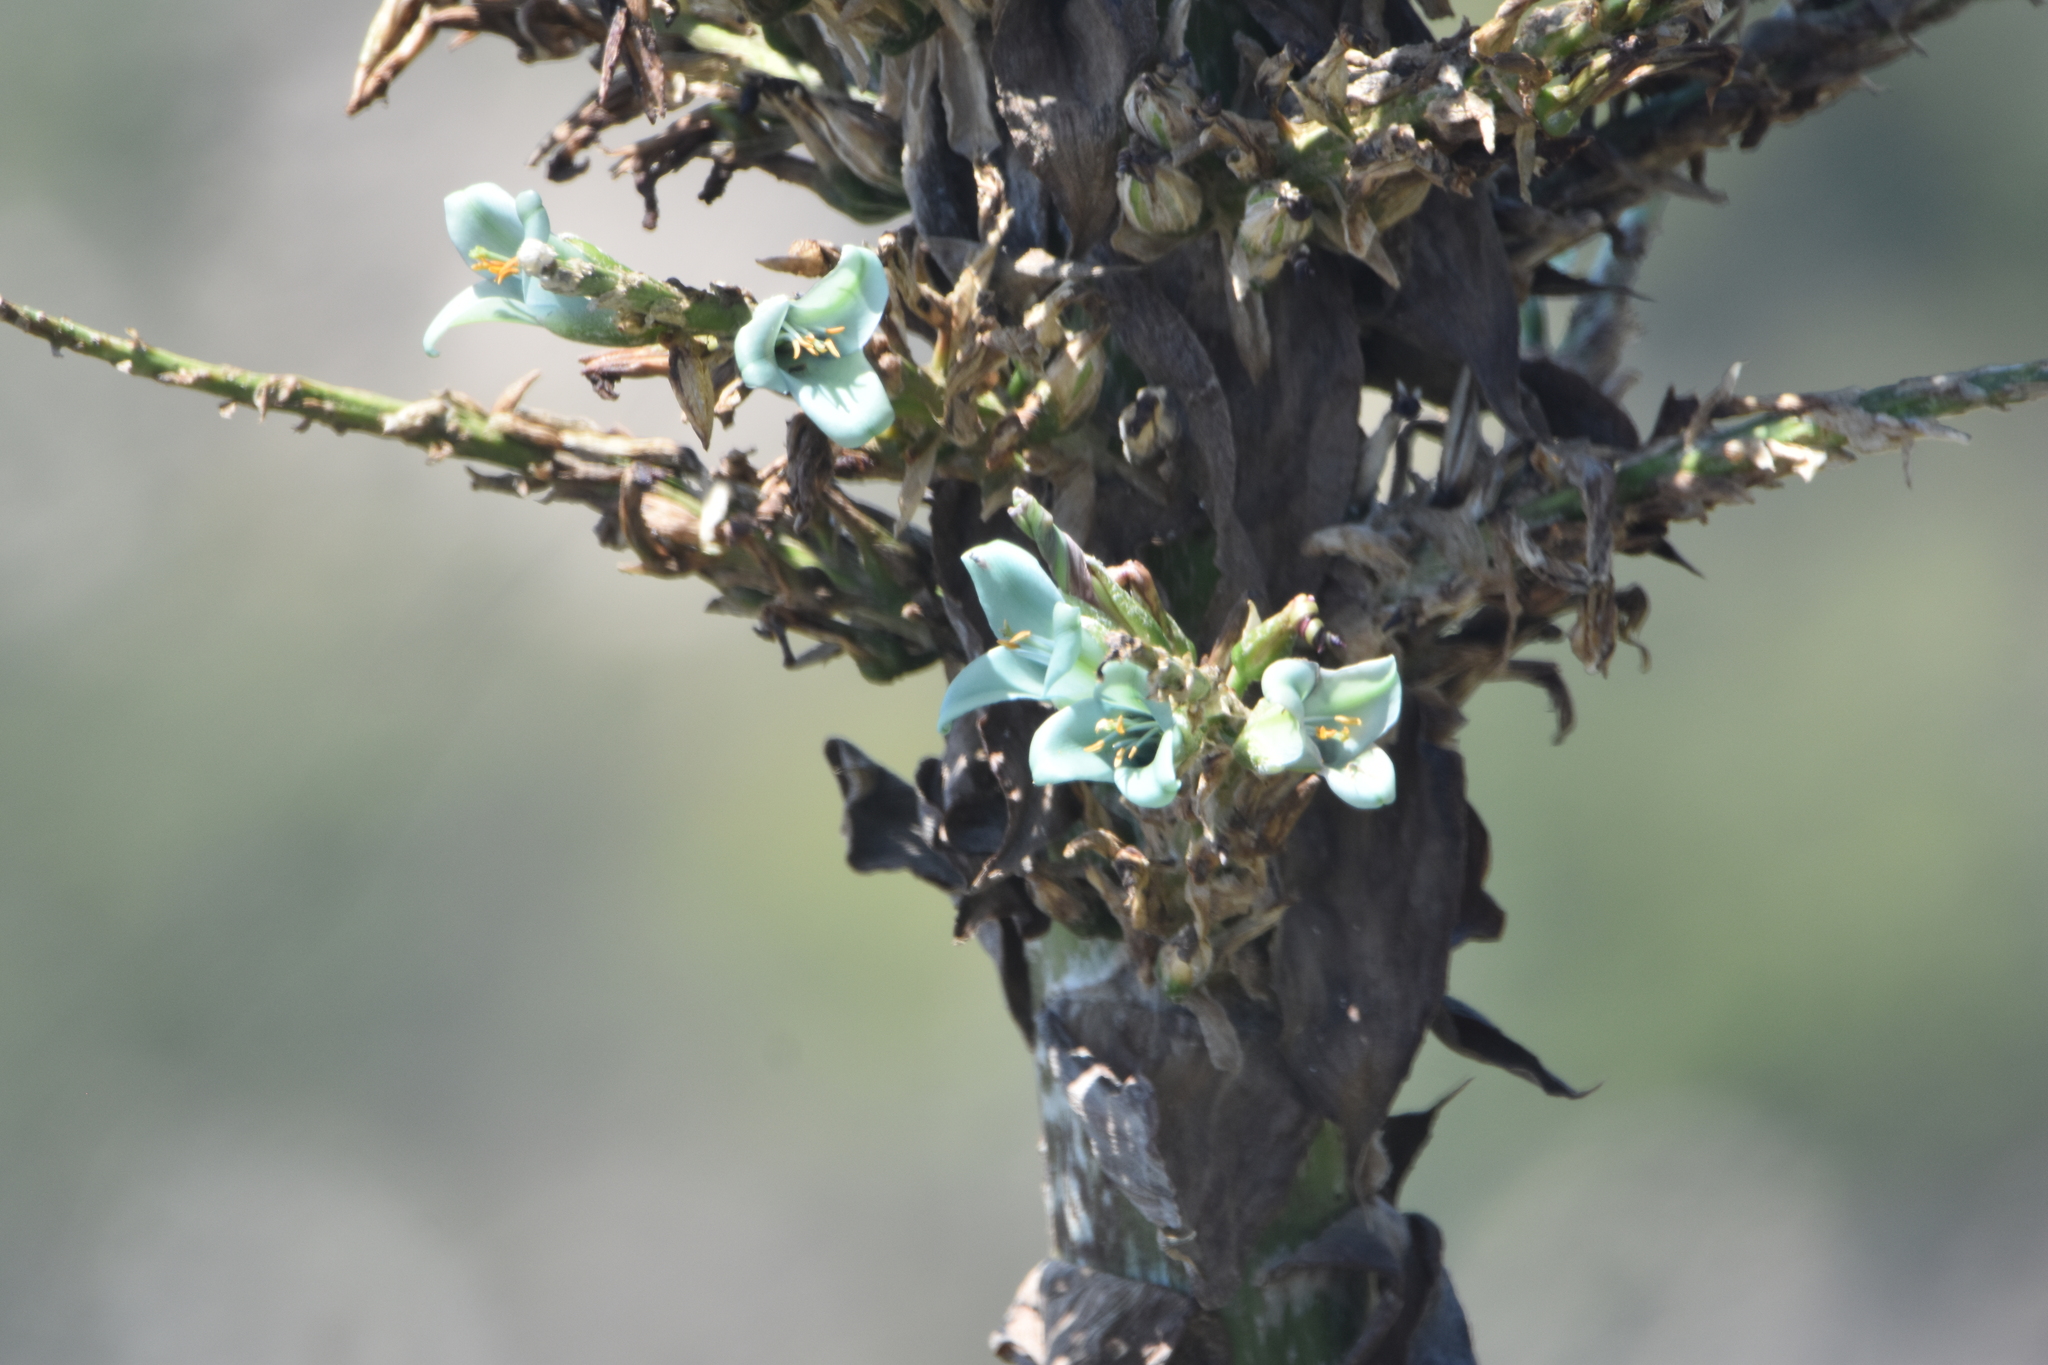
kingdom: Plantae
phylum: Tracheophyta
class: Liliopsida
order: Poales
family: Bromeliaceae
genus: Puya
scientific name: Puya alpestris
